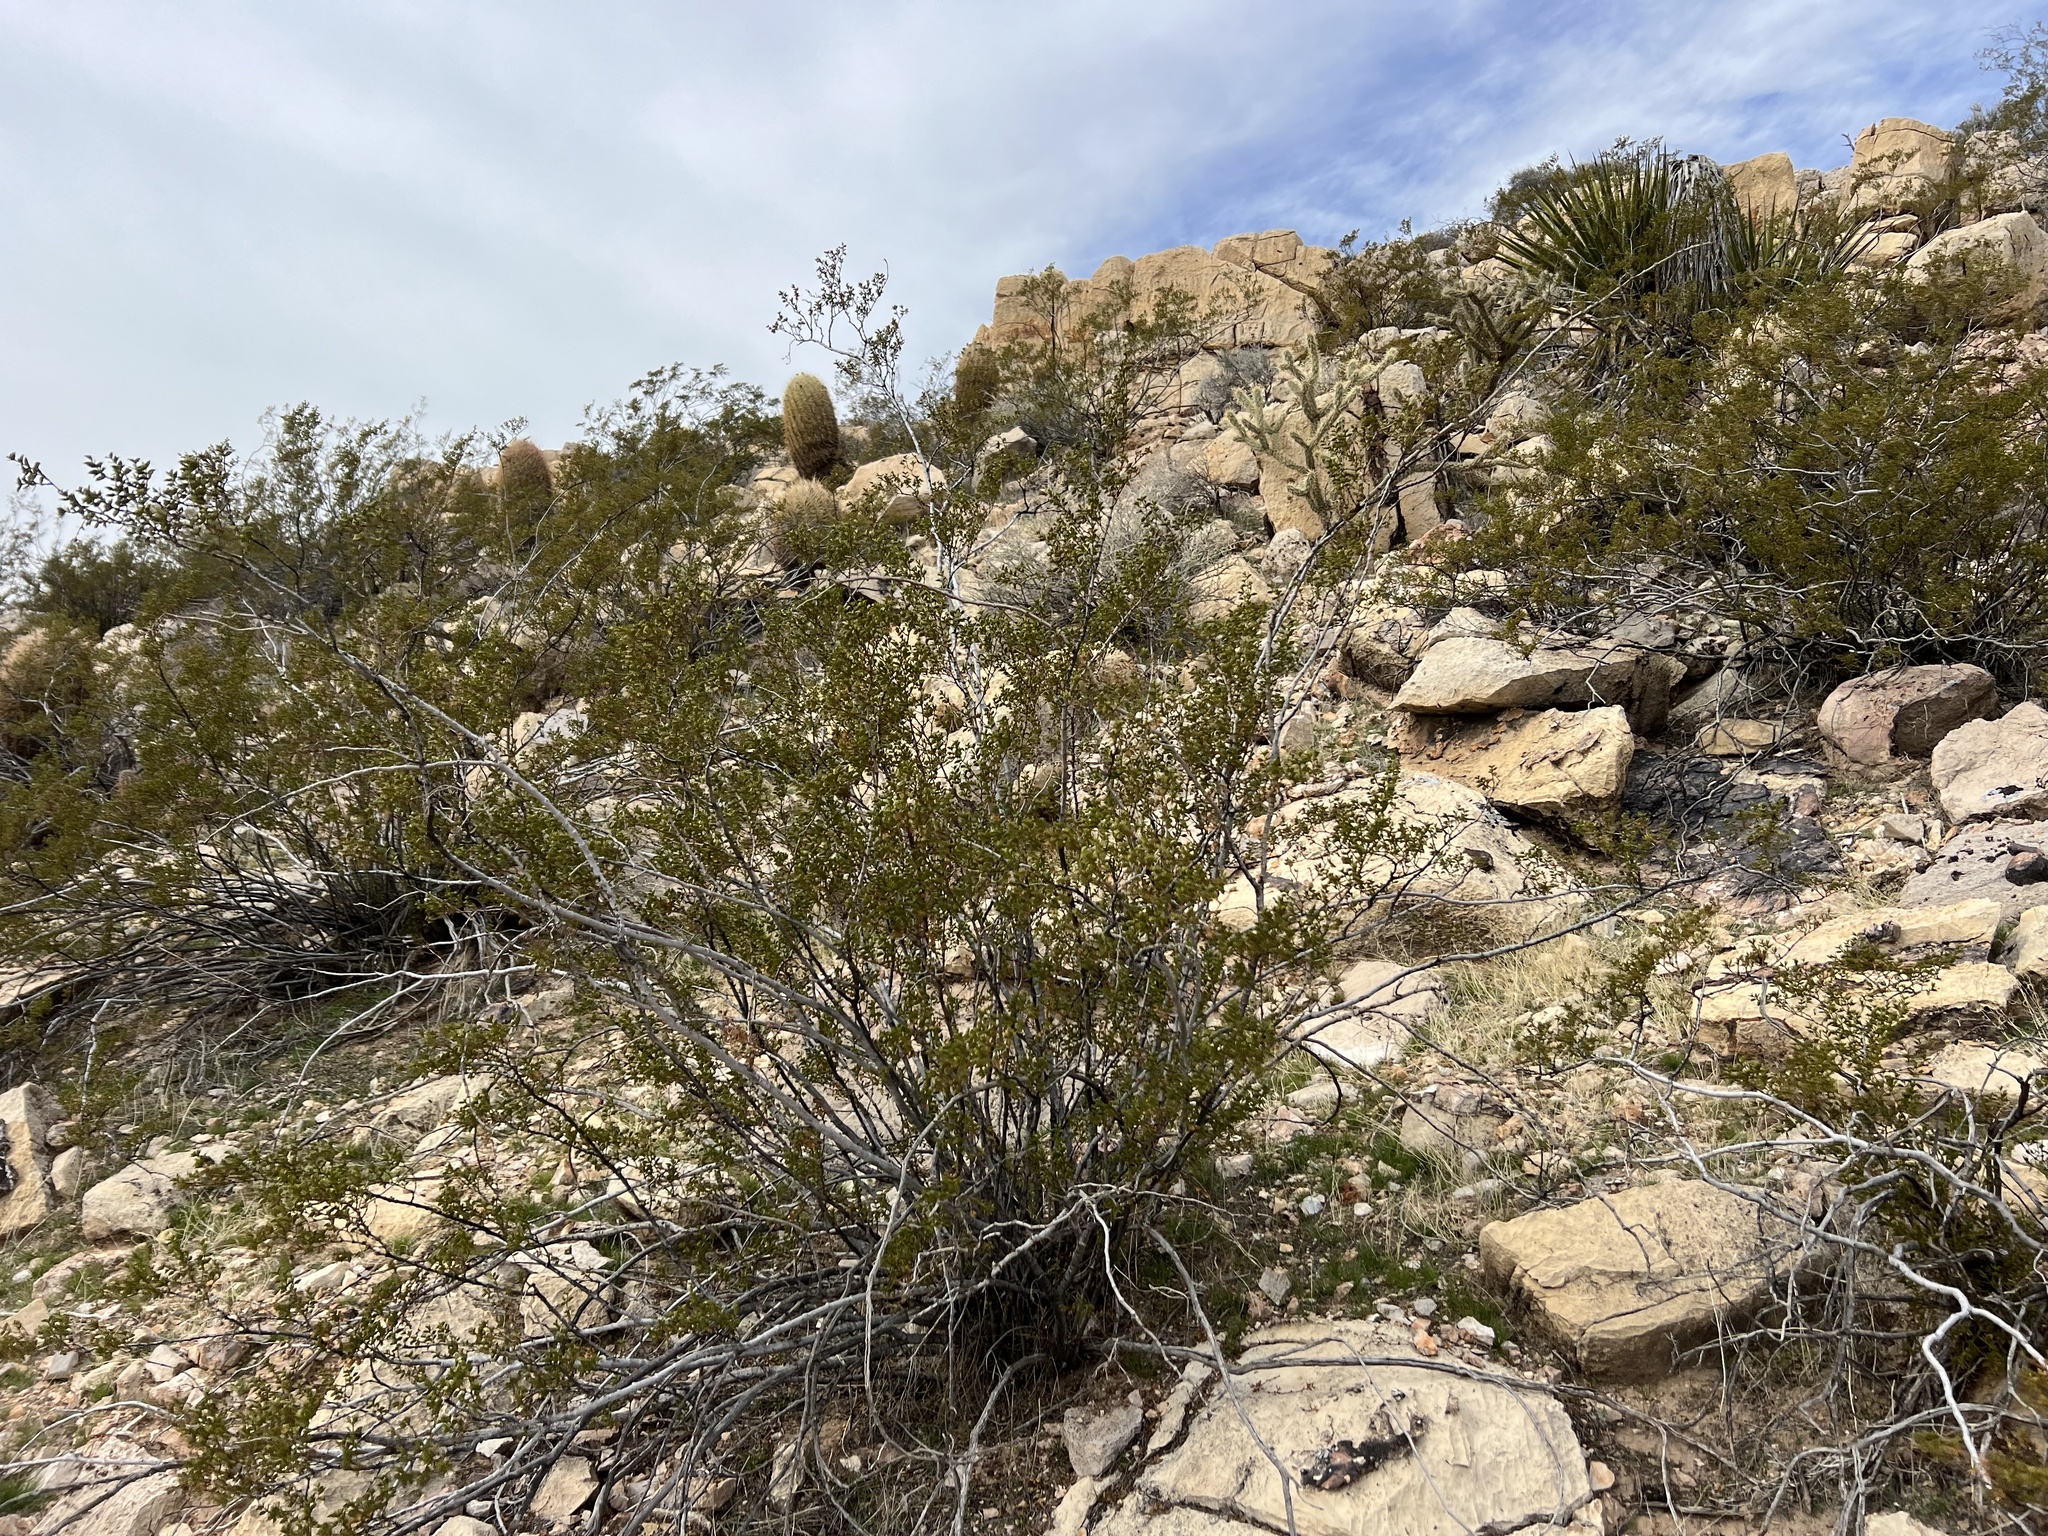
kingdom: Plantae
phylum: Tracheophyta
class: Magnoliopsida
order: Zygophyllales
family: Zygophyllaceae
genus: Larrea
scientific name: Larrea tridentata
